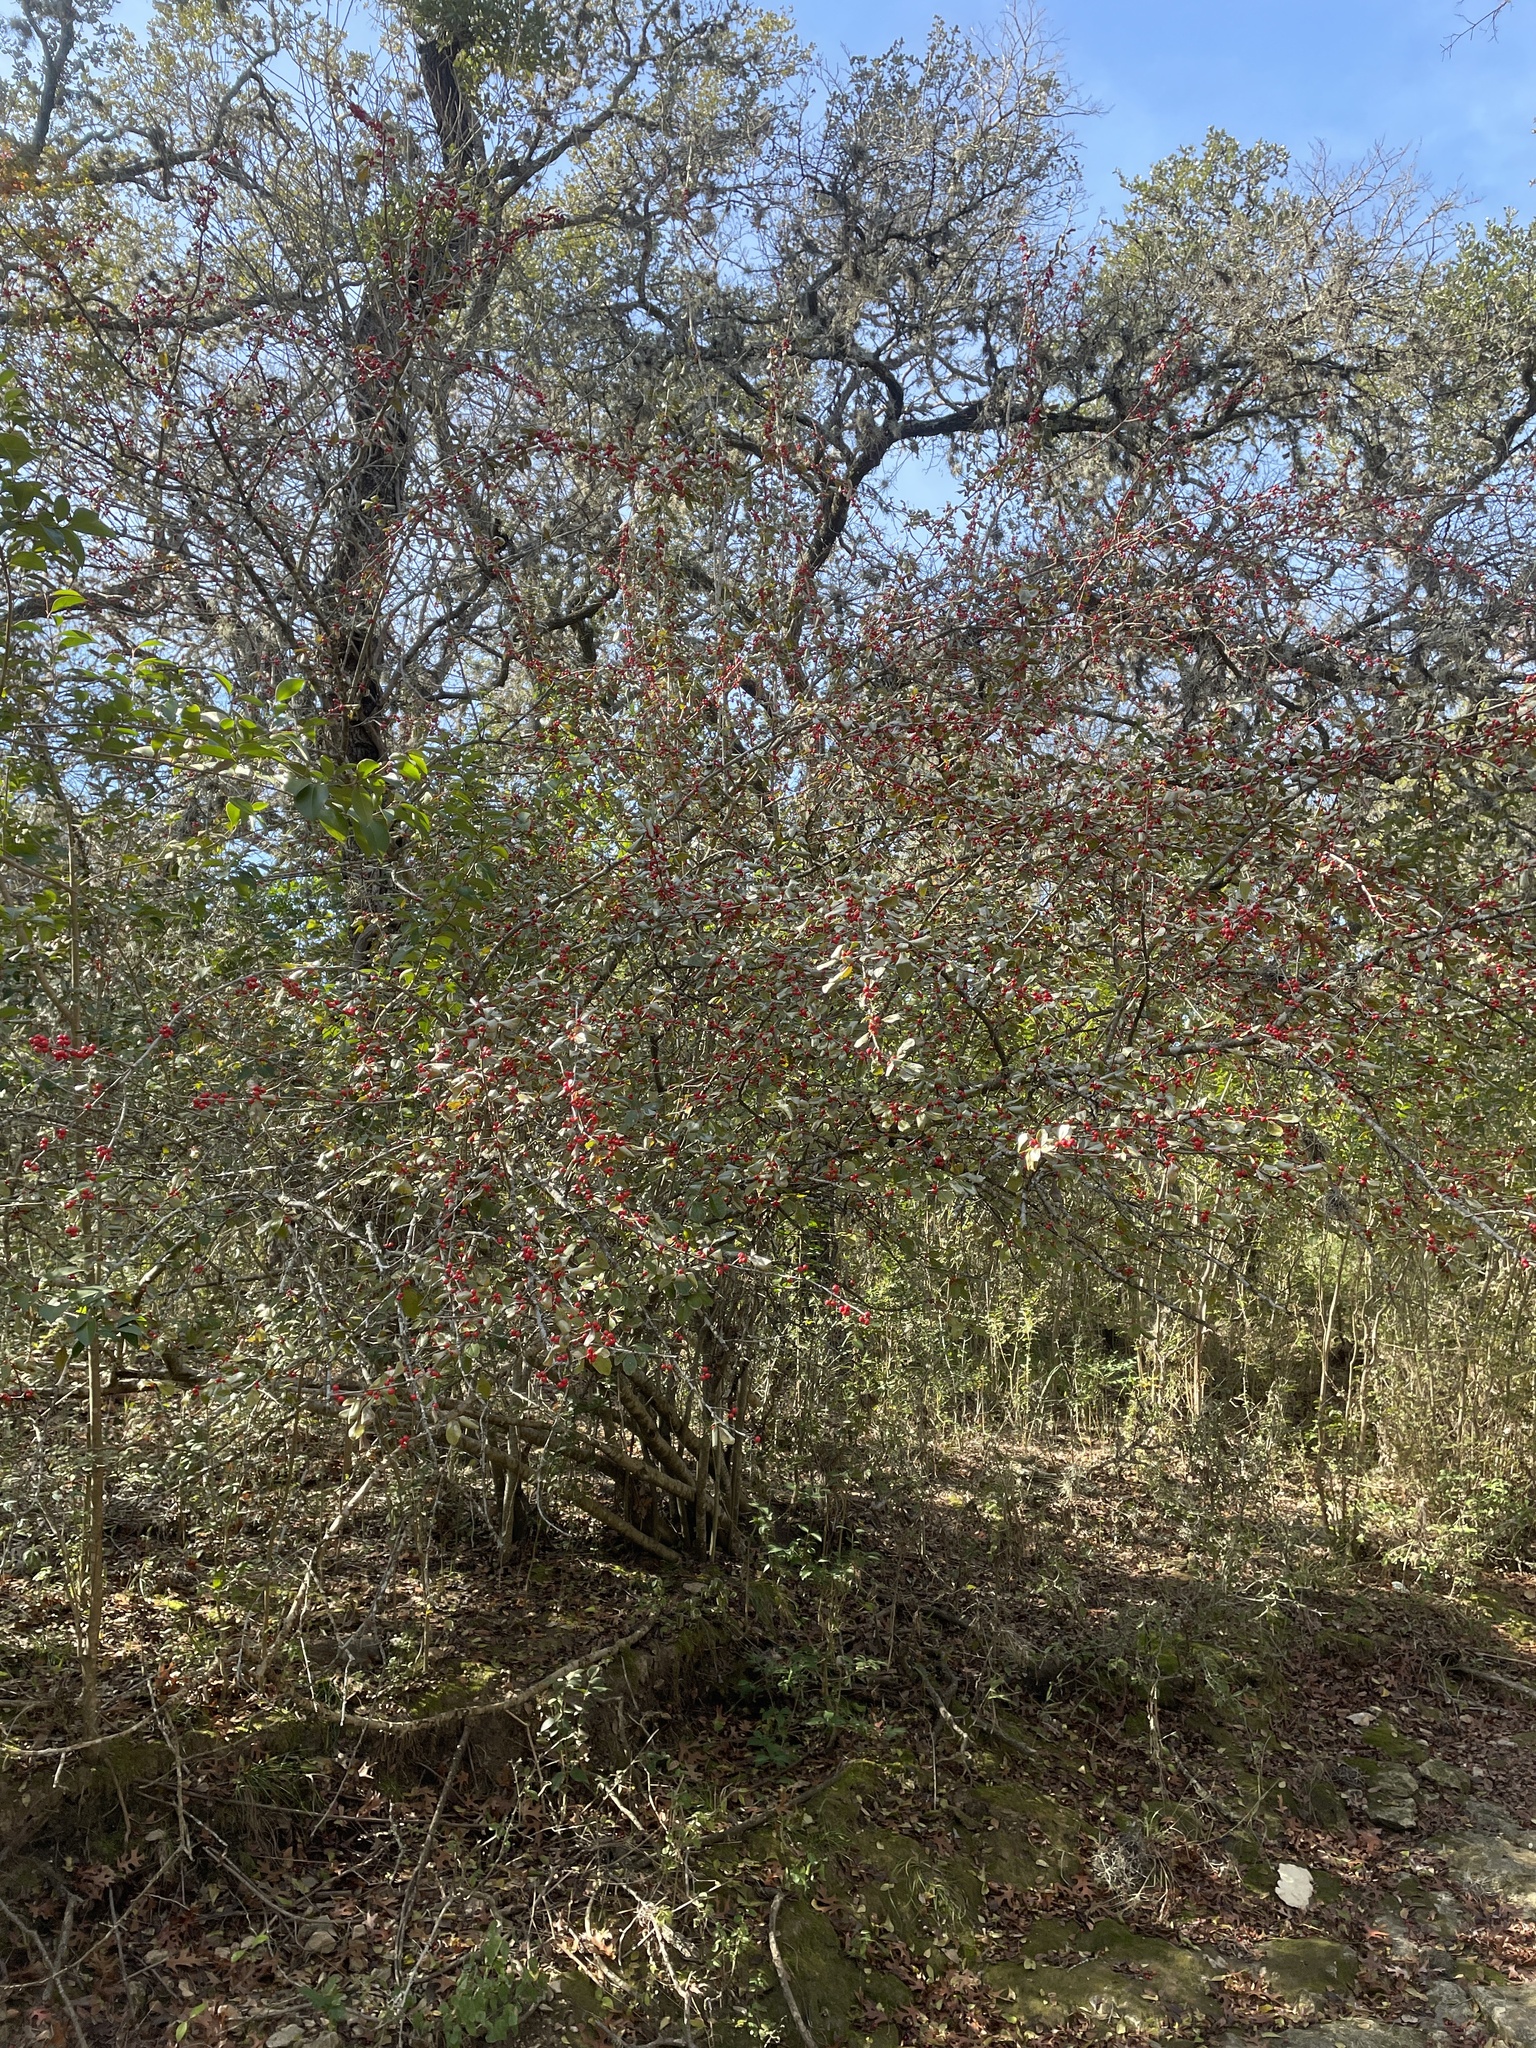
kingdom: Plantae
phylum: Tracheophyta
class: Magnoliopsida
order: Aquifoliales
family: Aquifoliaceae
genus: Ilex
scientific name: Ilex decidua
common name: Possum-haw
